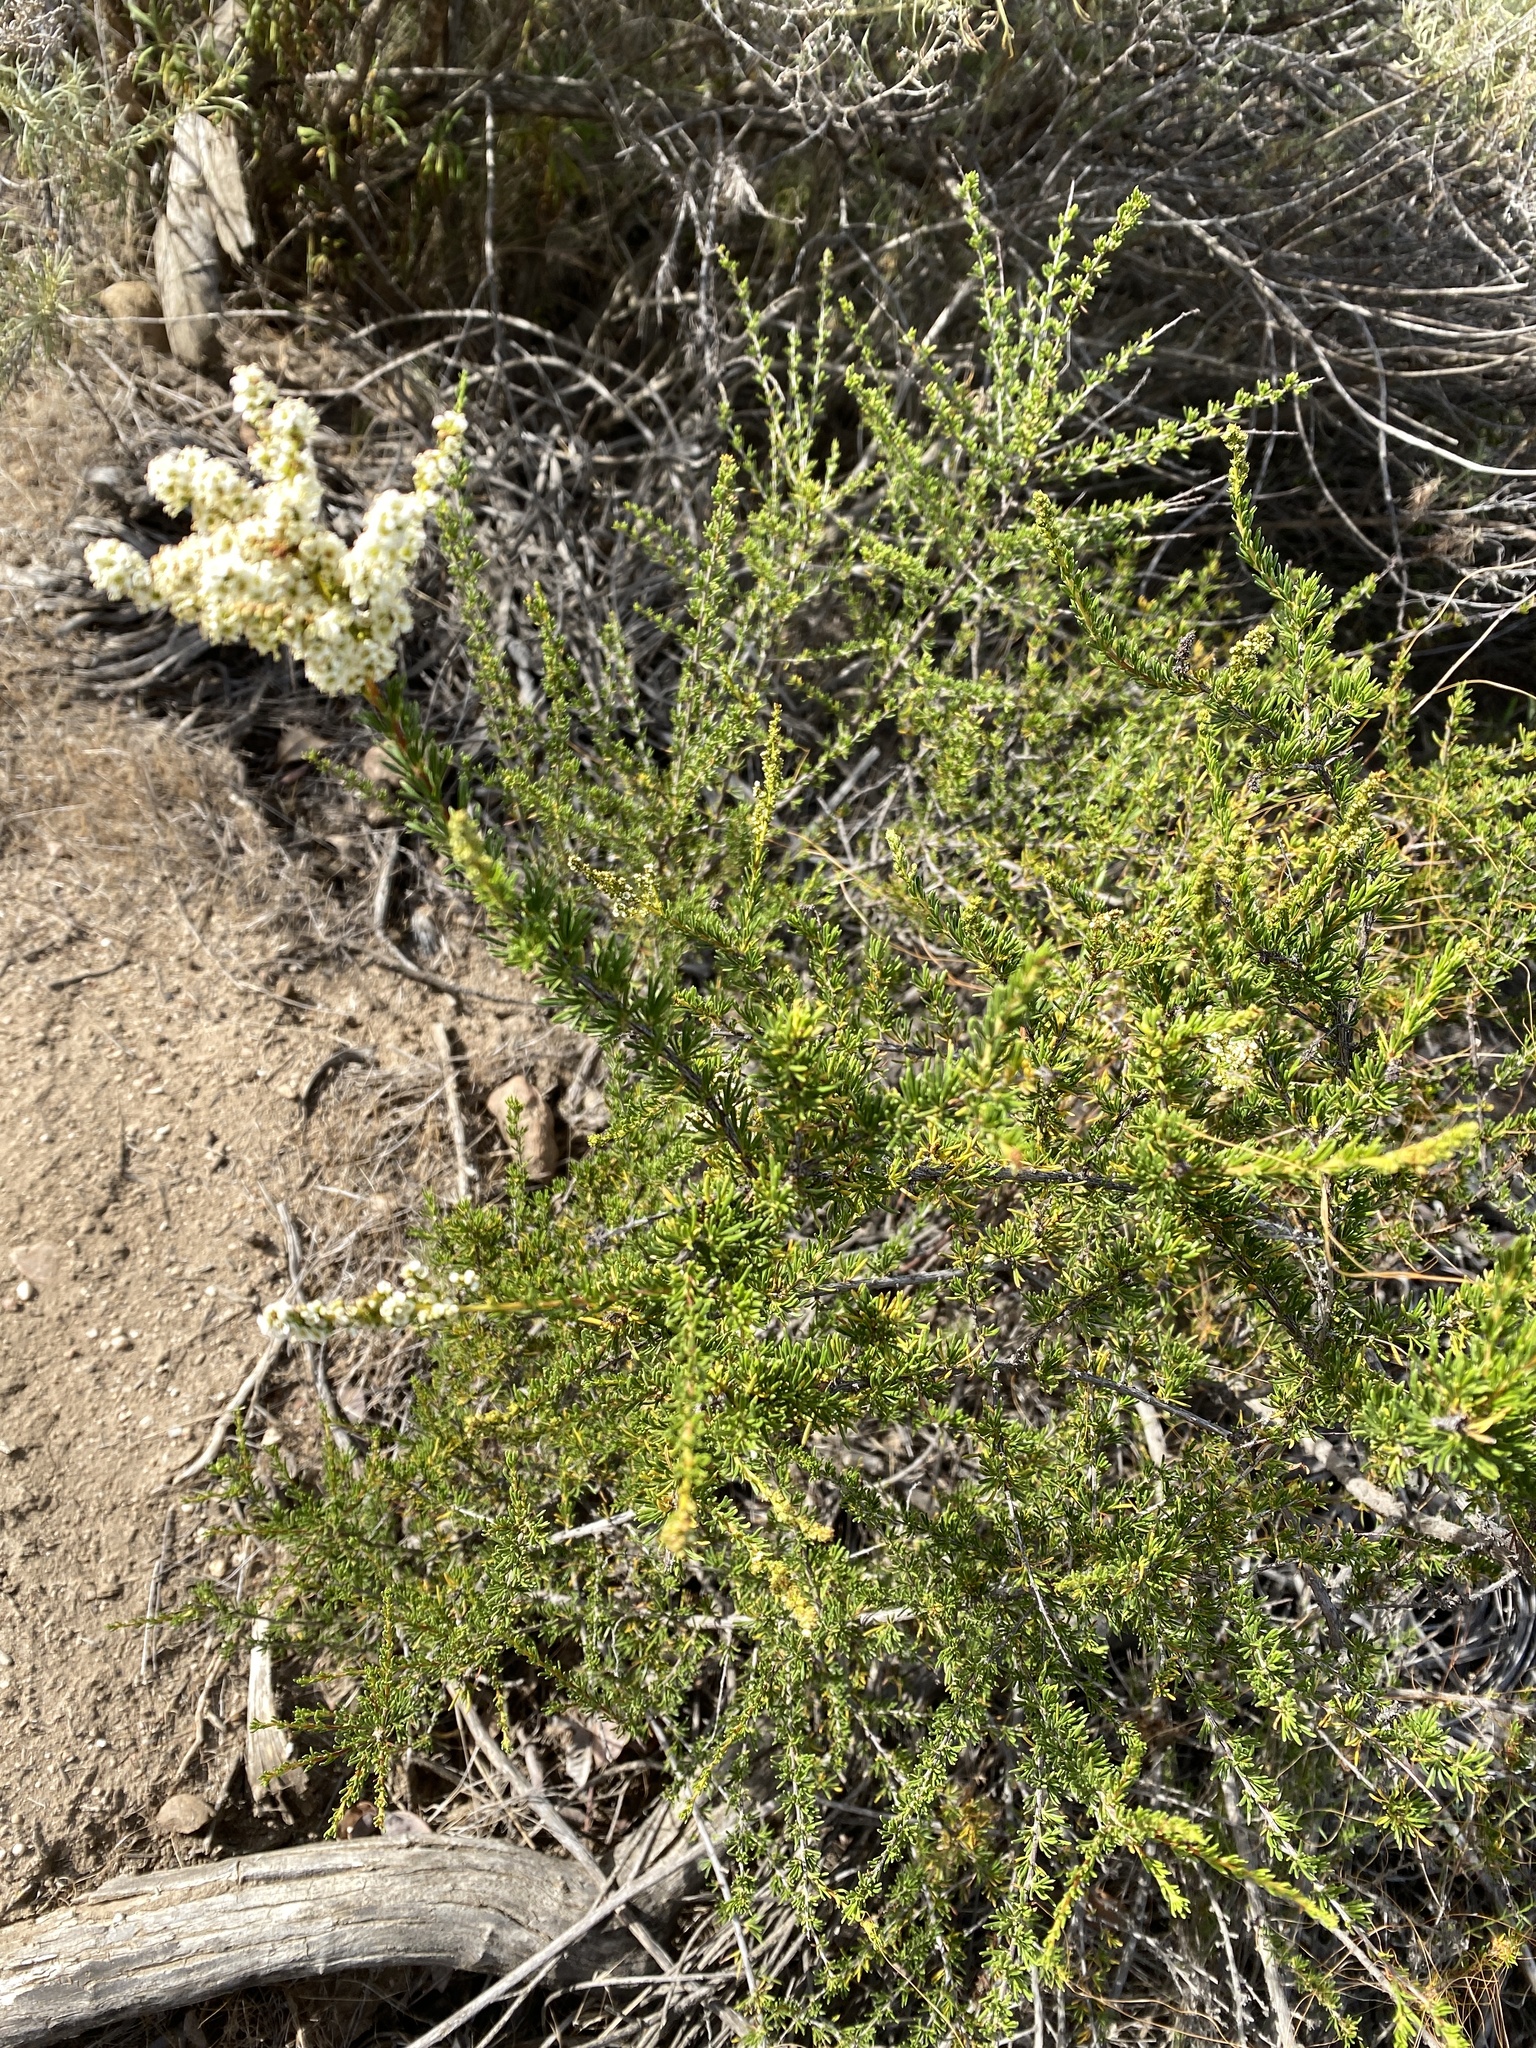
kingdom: Plantae
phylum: Tracheophyta
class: Magnoliopsida
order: Rosales
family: Rosaceae
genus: Adenostoma
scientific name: Adenostoma fasciculatum
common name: Chamise
